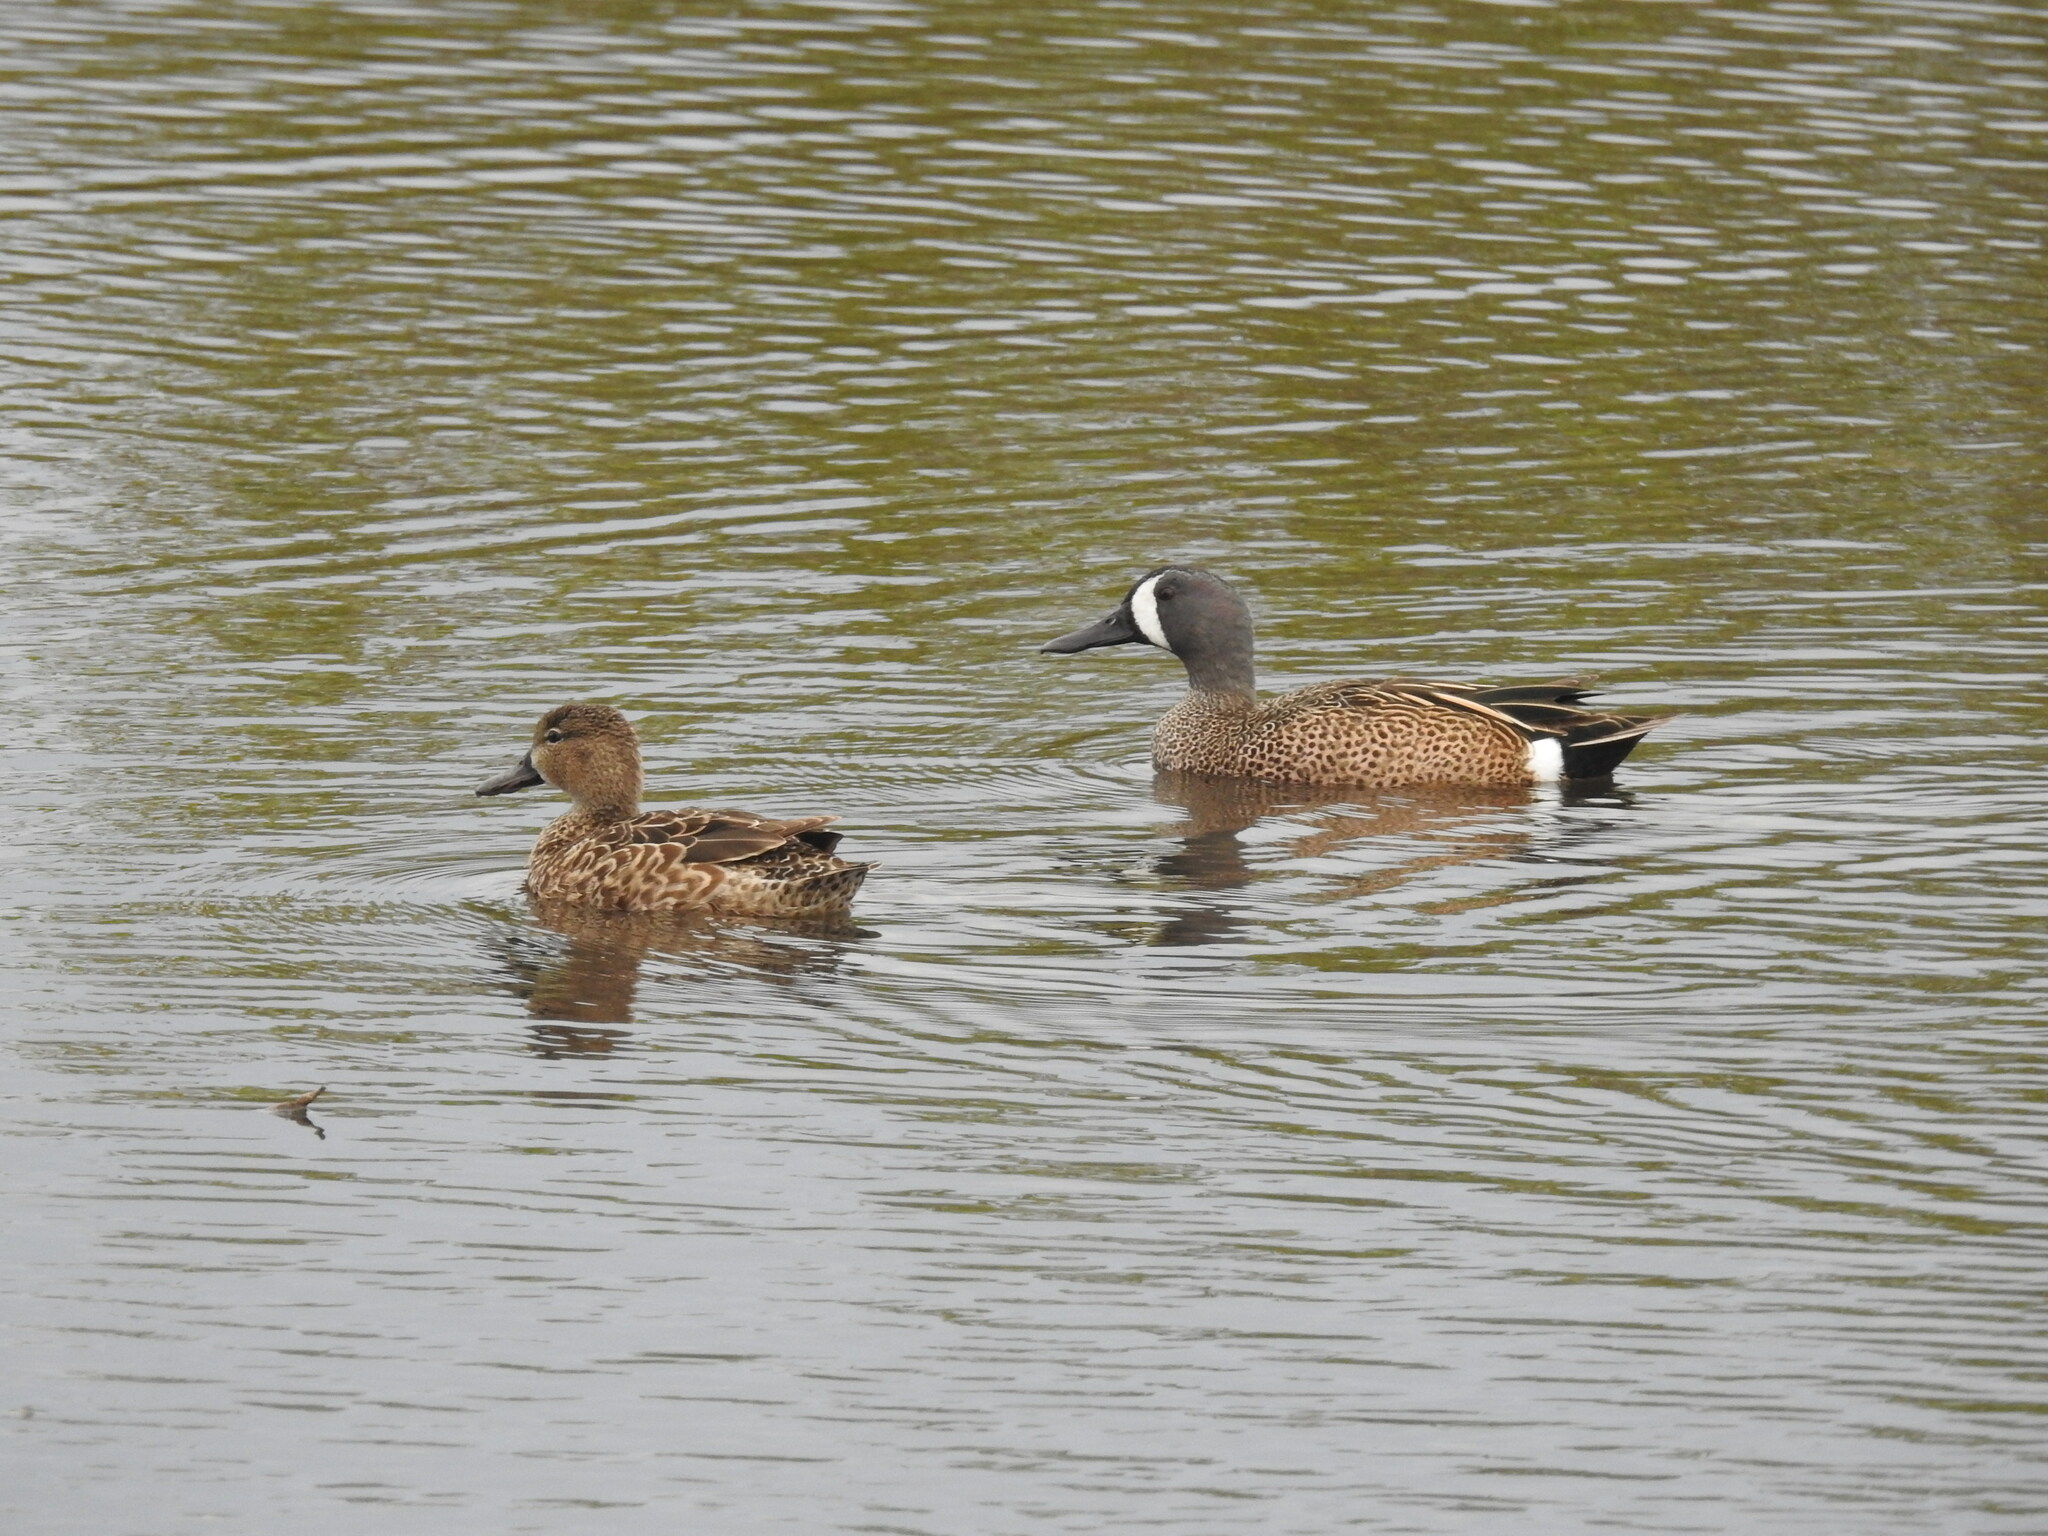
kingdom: Animalia
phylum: Chordata
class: Aves
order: Anseriformes
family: Anatidae
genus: Spatula
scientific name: Spatula discors
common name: Blue-winged teal
